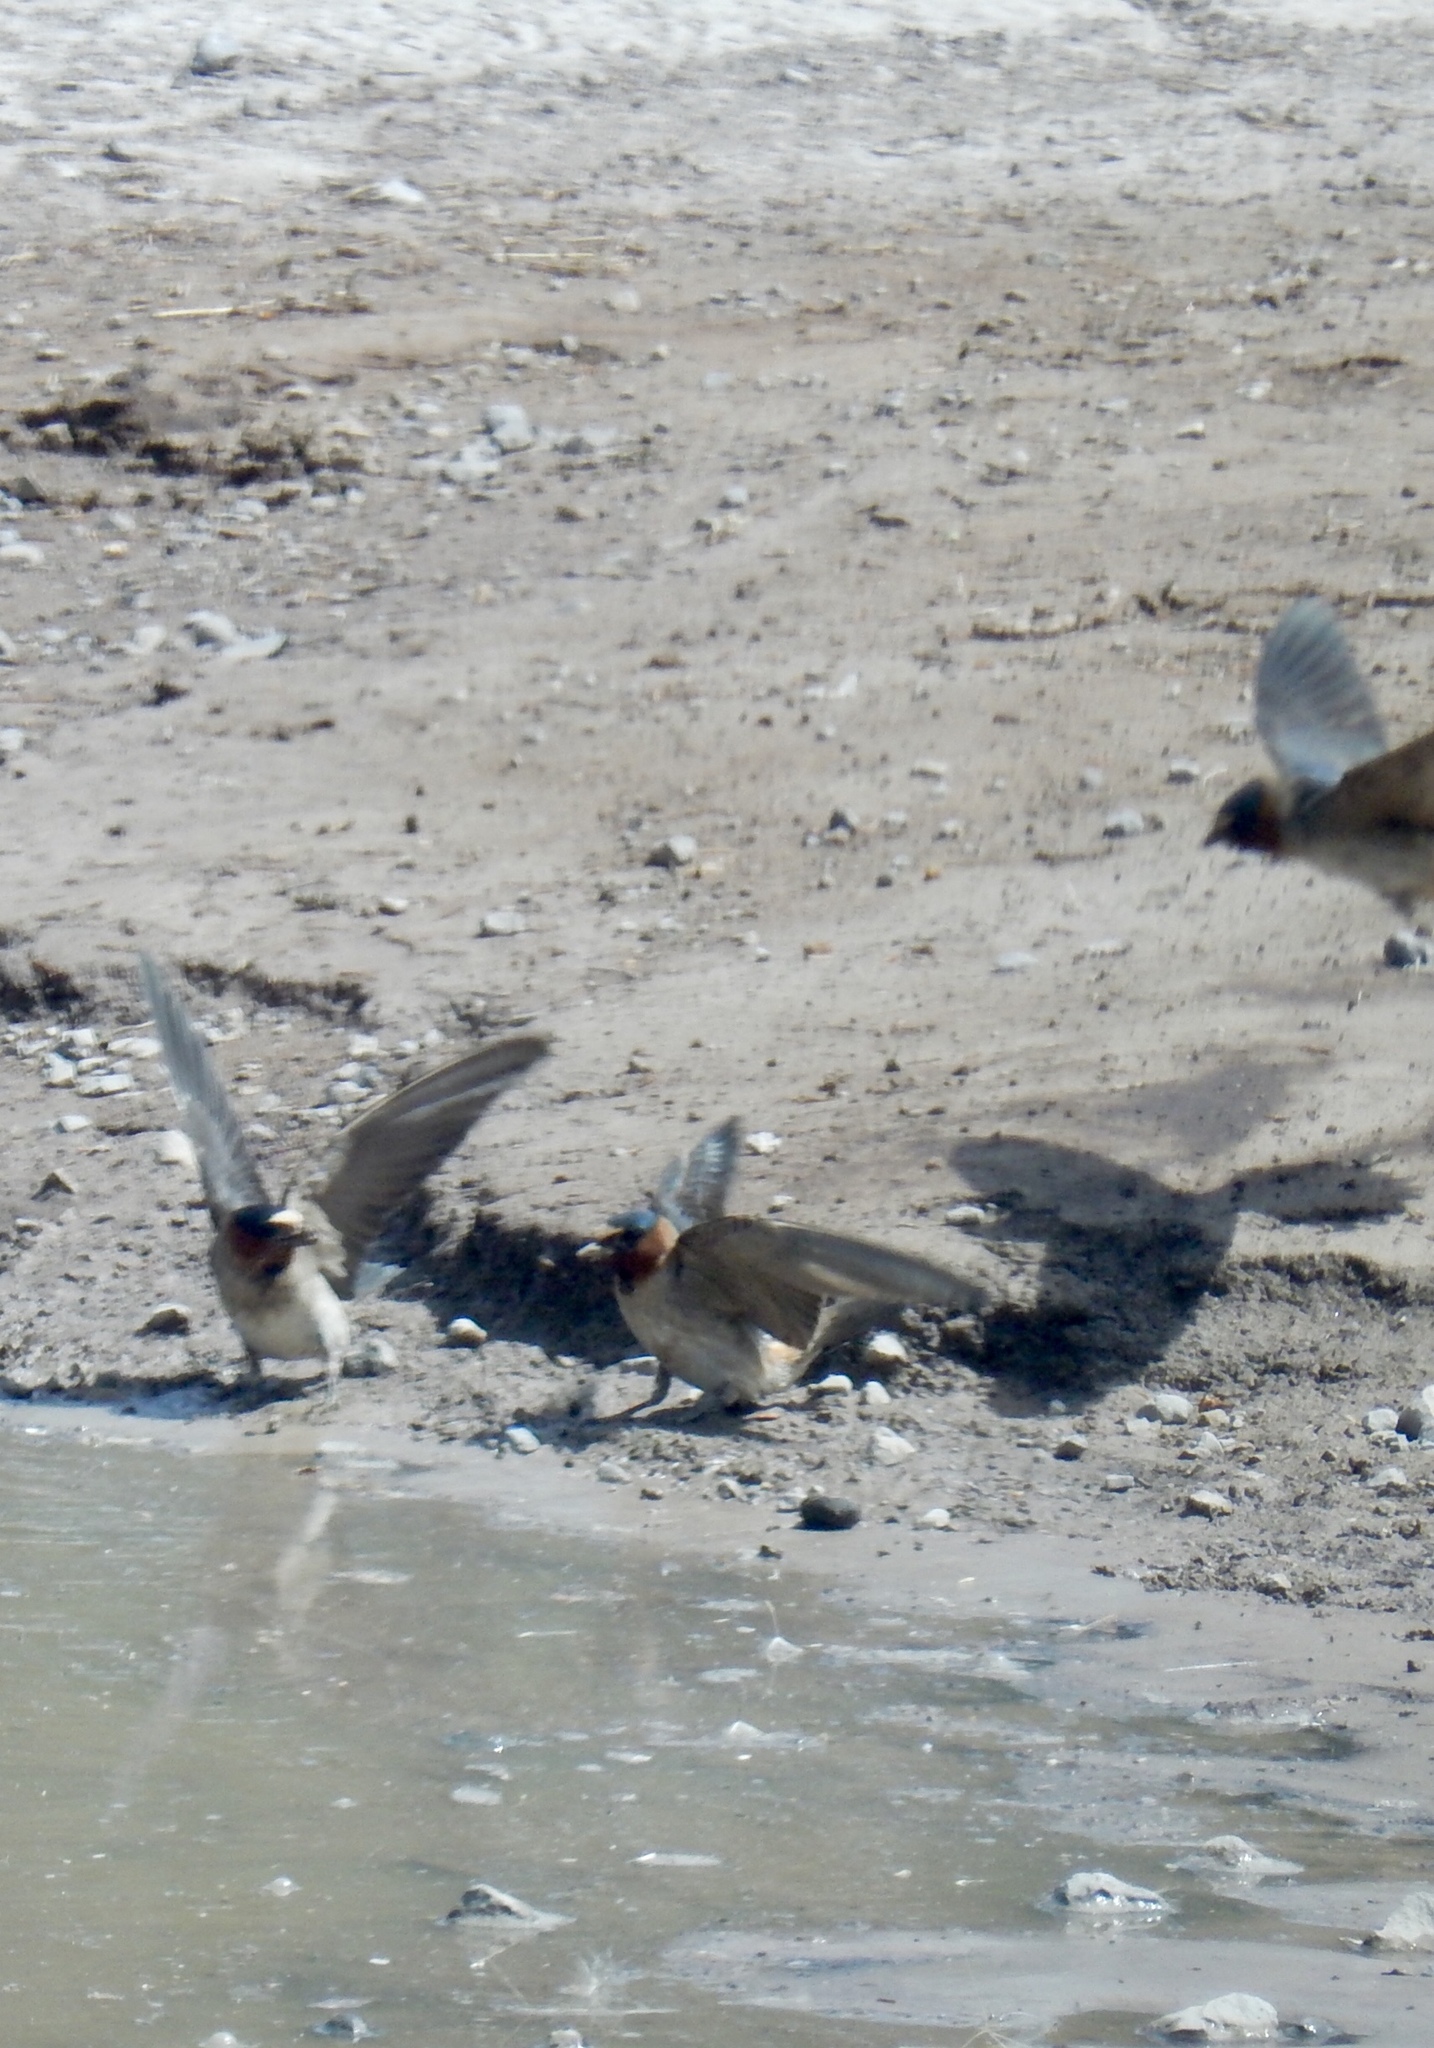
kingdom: Animalia
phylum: Chordata
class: Aves
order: Passeriformes
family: Hirundinidae
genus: Petrochelidon
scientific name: Petrochelidon pyrrhonota
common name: American cliff swallow
